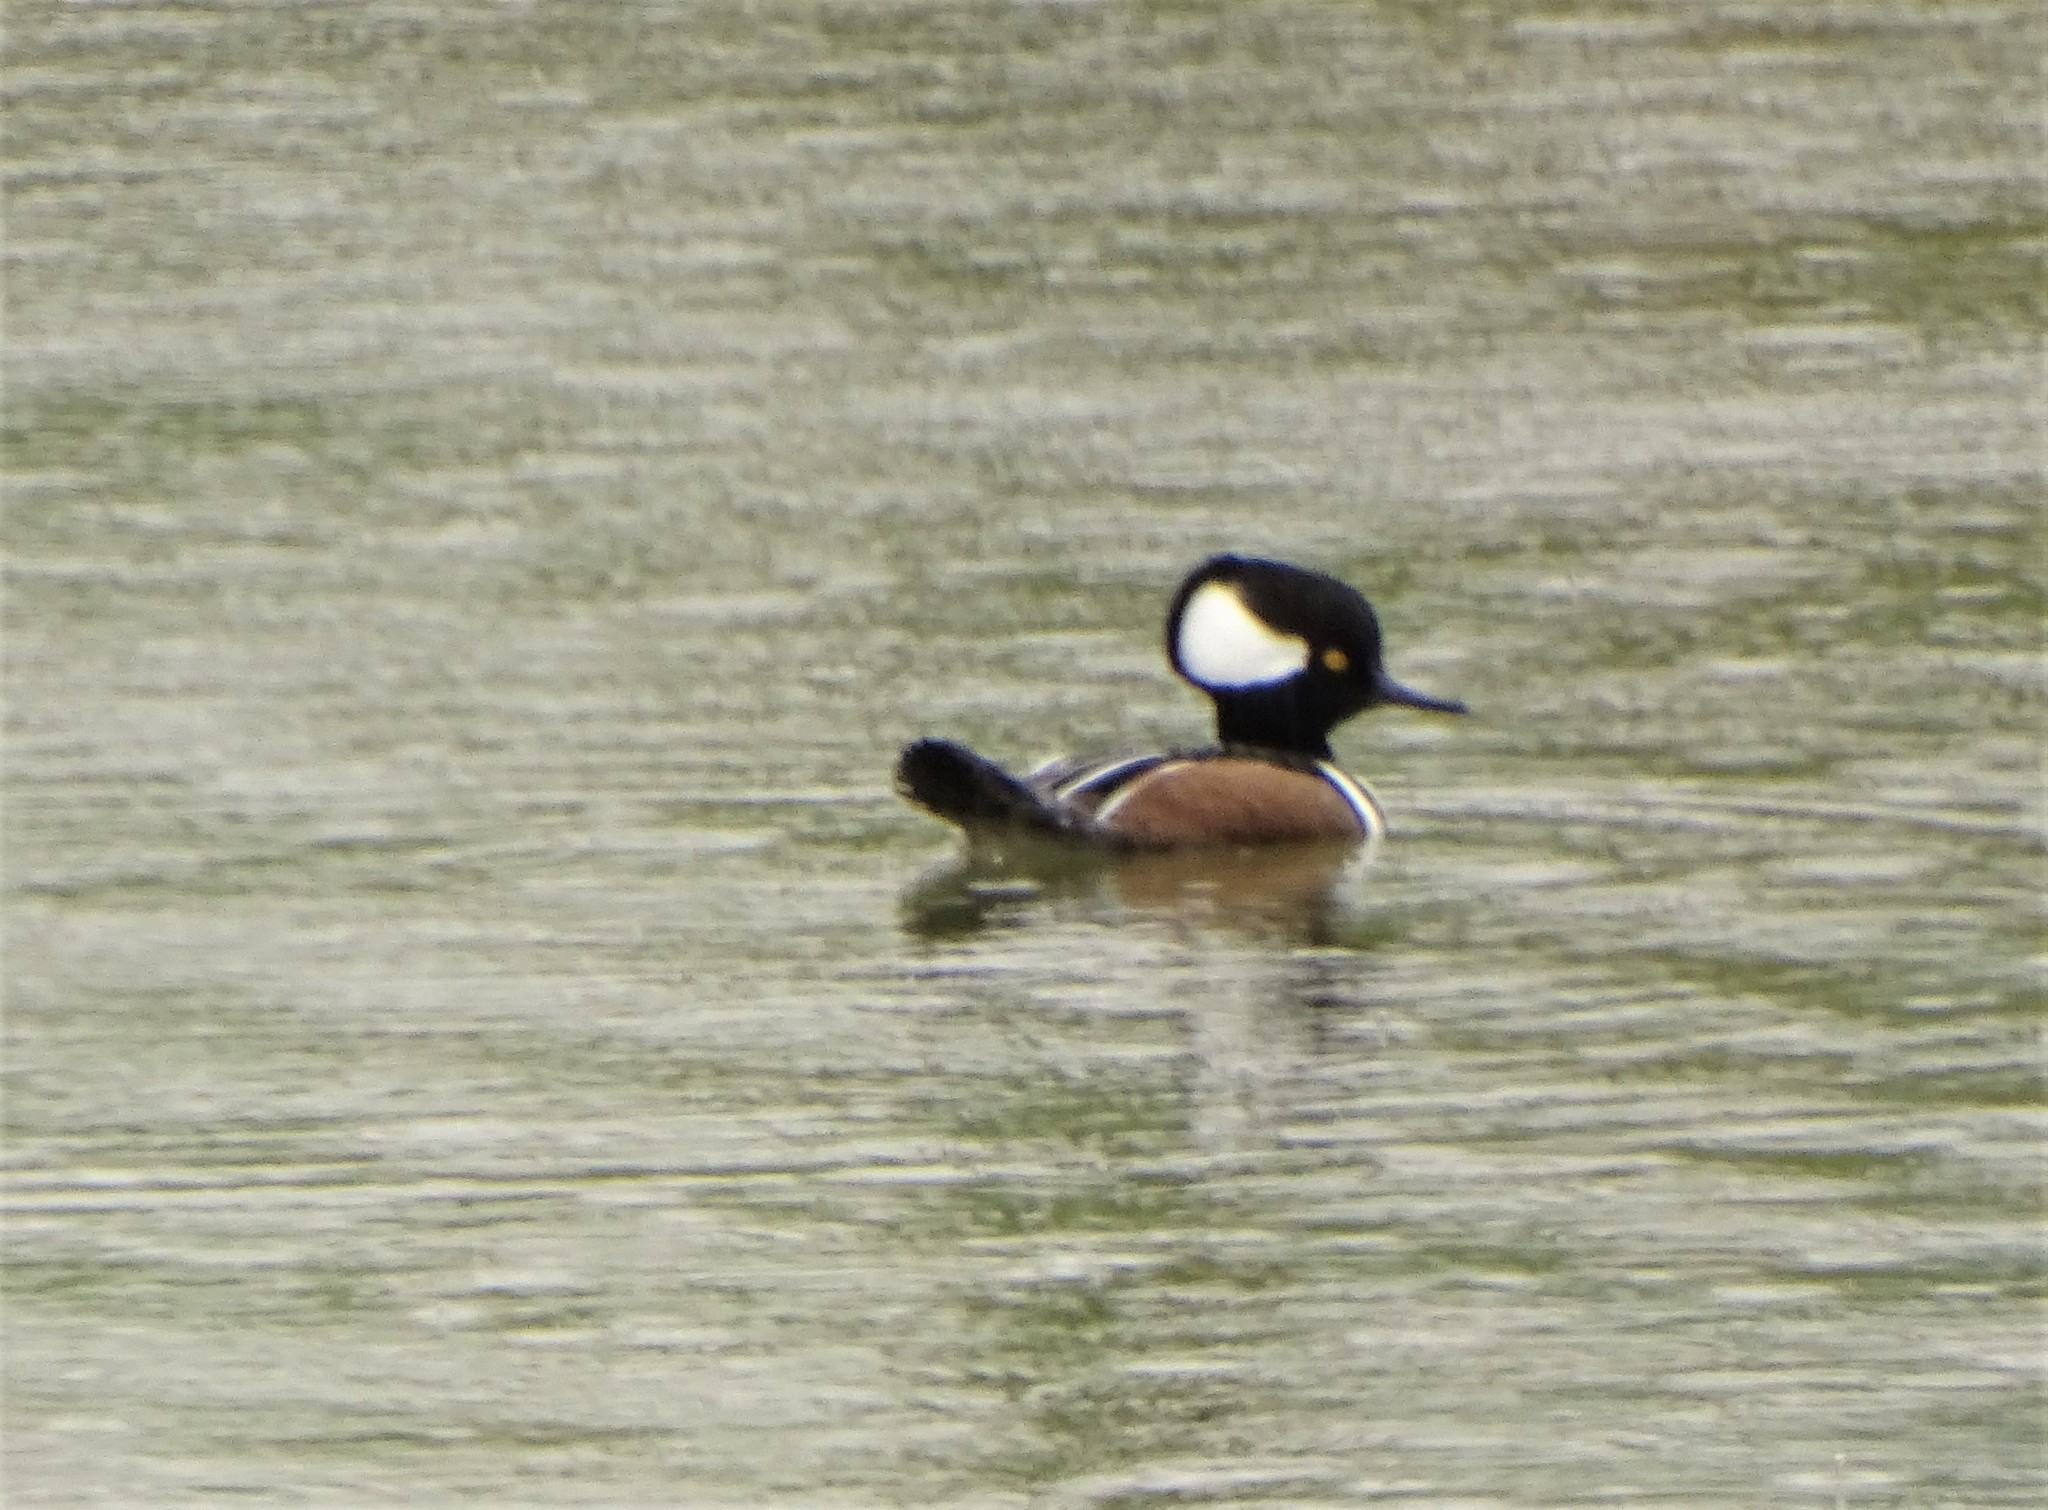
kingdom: Animalia
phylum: Chordata
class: Aves
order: Anseriformes
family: Anatidae
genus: Lophodytes
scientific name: Lophodytes cucullatus
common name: Hooded merganser
